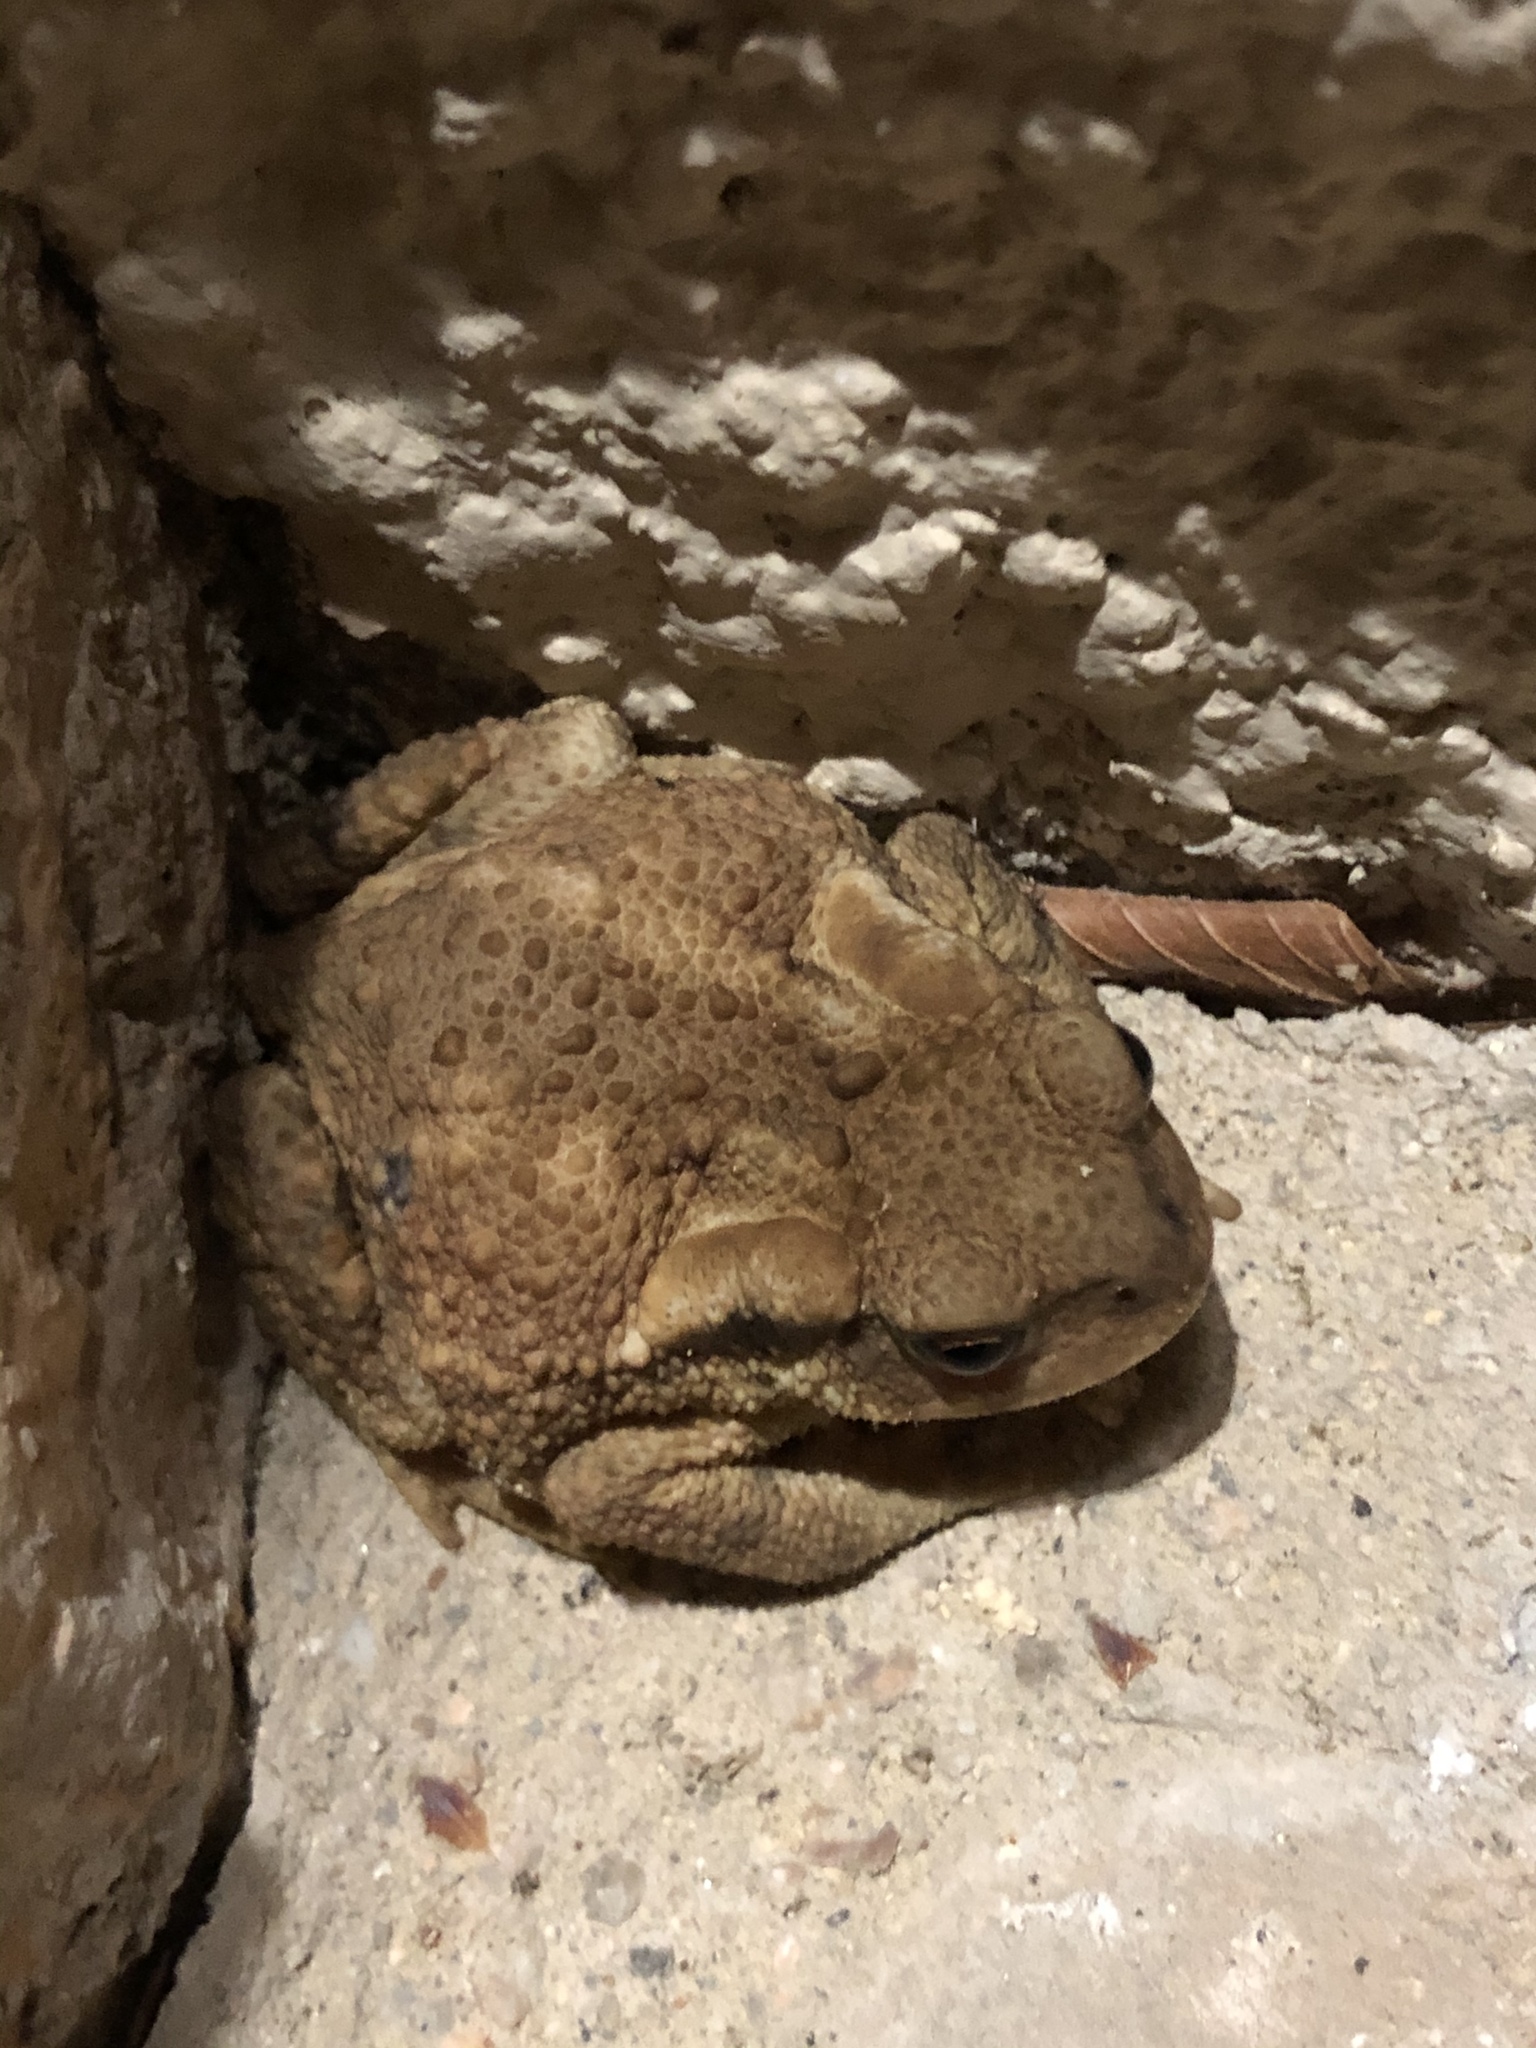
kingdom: Animalia
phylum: Chordata
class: Amphibia
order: Anura
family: Bufonidae
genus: Bufo
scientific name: Bufo spinosus
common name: Western common toad
